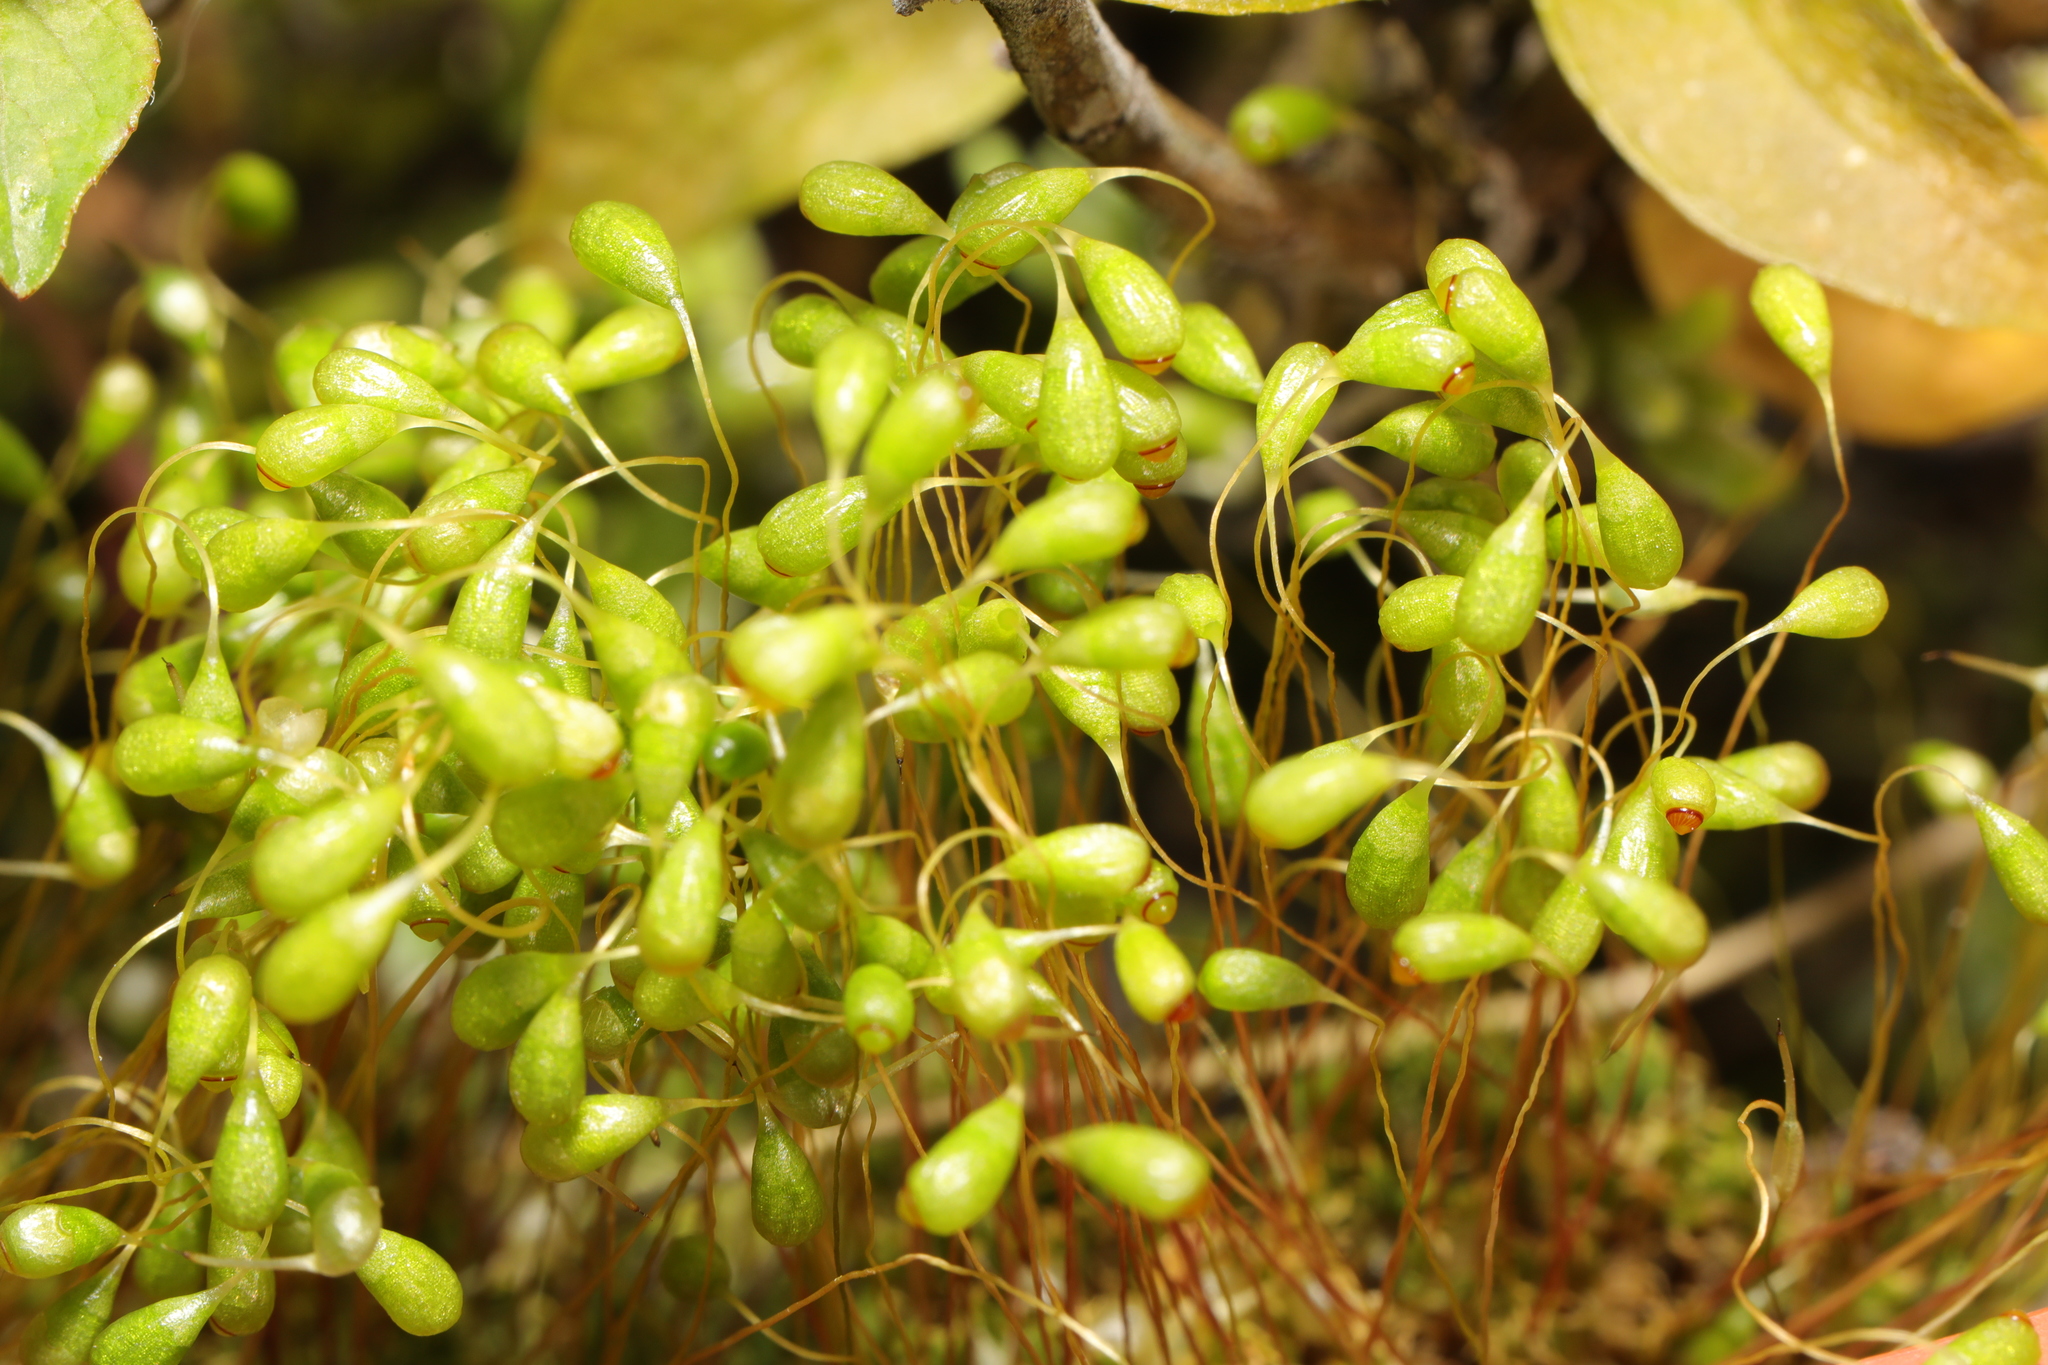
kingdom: Plantae
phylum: Bryophyta
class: Bryopsida
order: Funariales
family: Funariaceae
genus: Funaria
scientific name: Funaria hygrometrica
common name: Common cord moss
